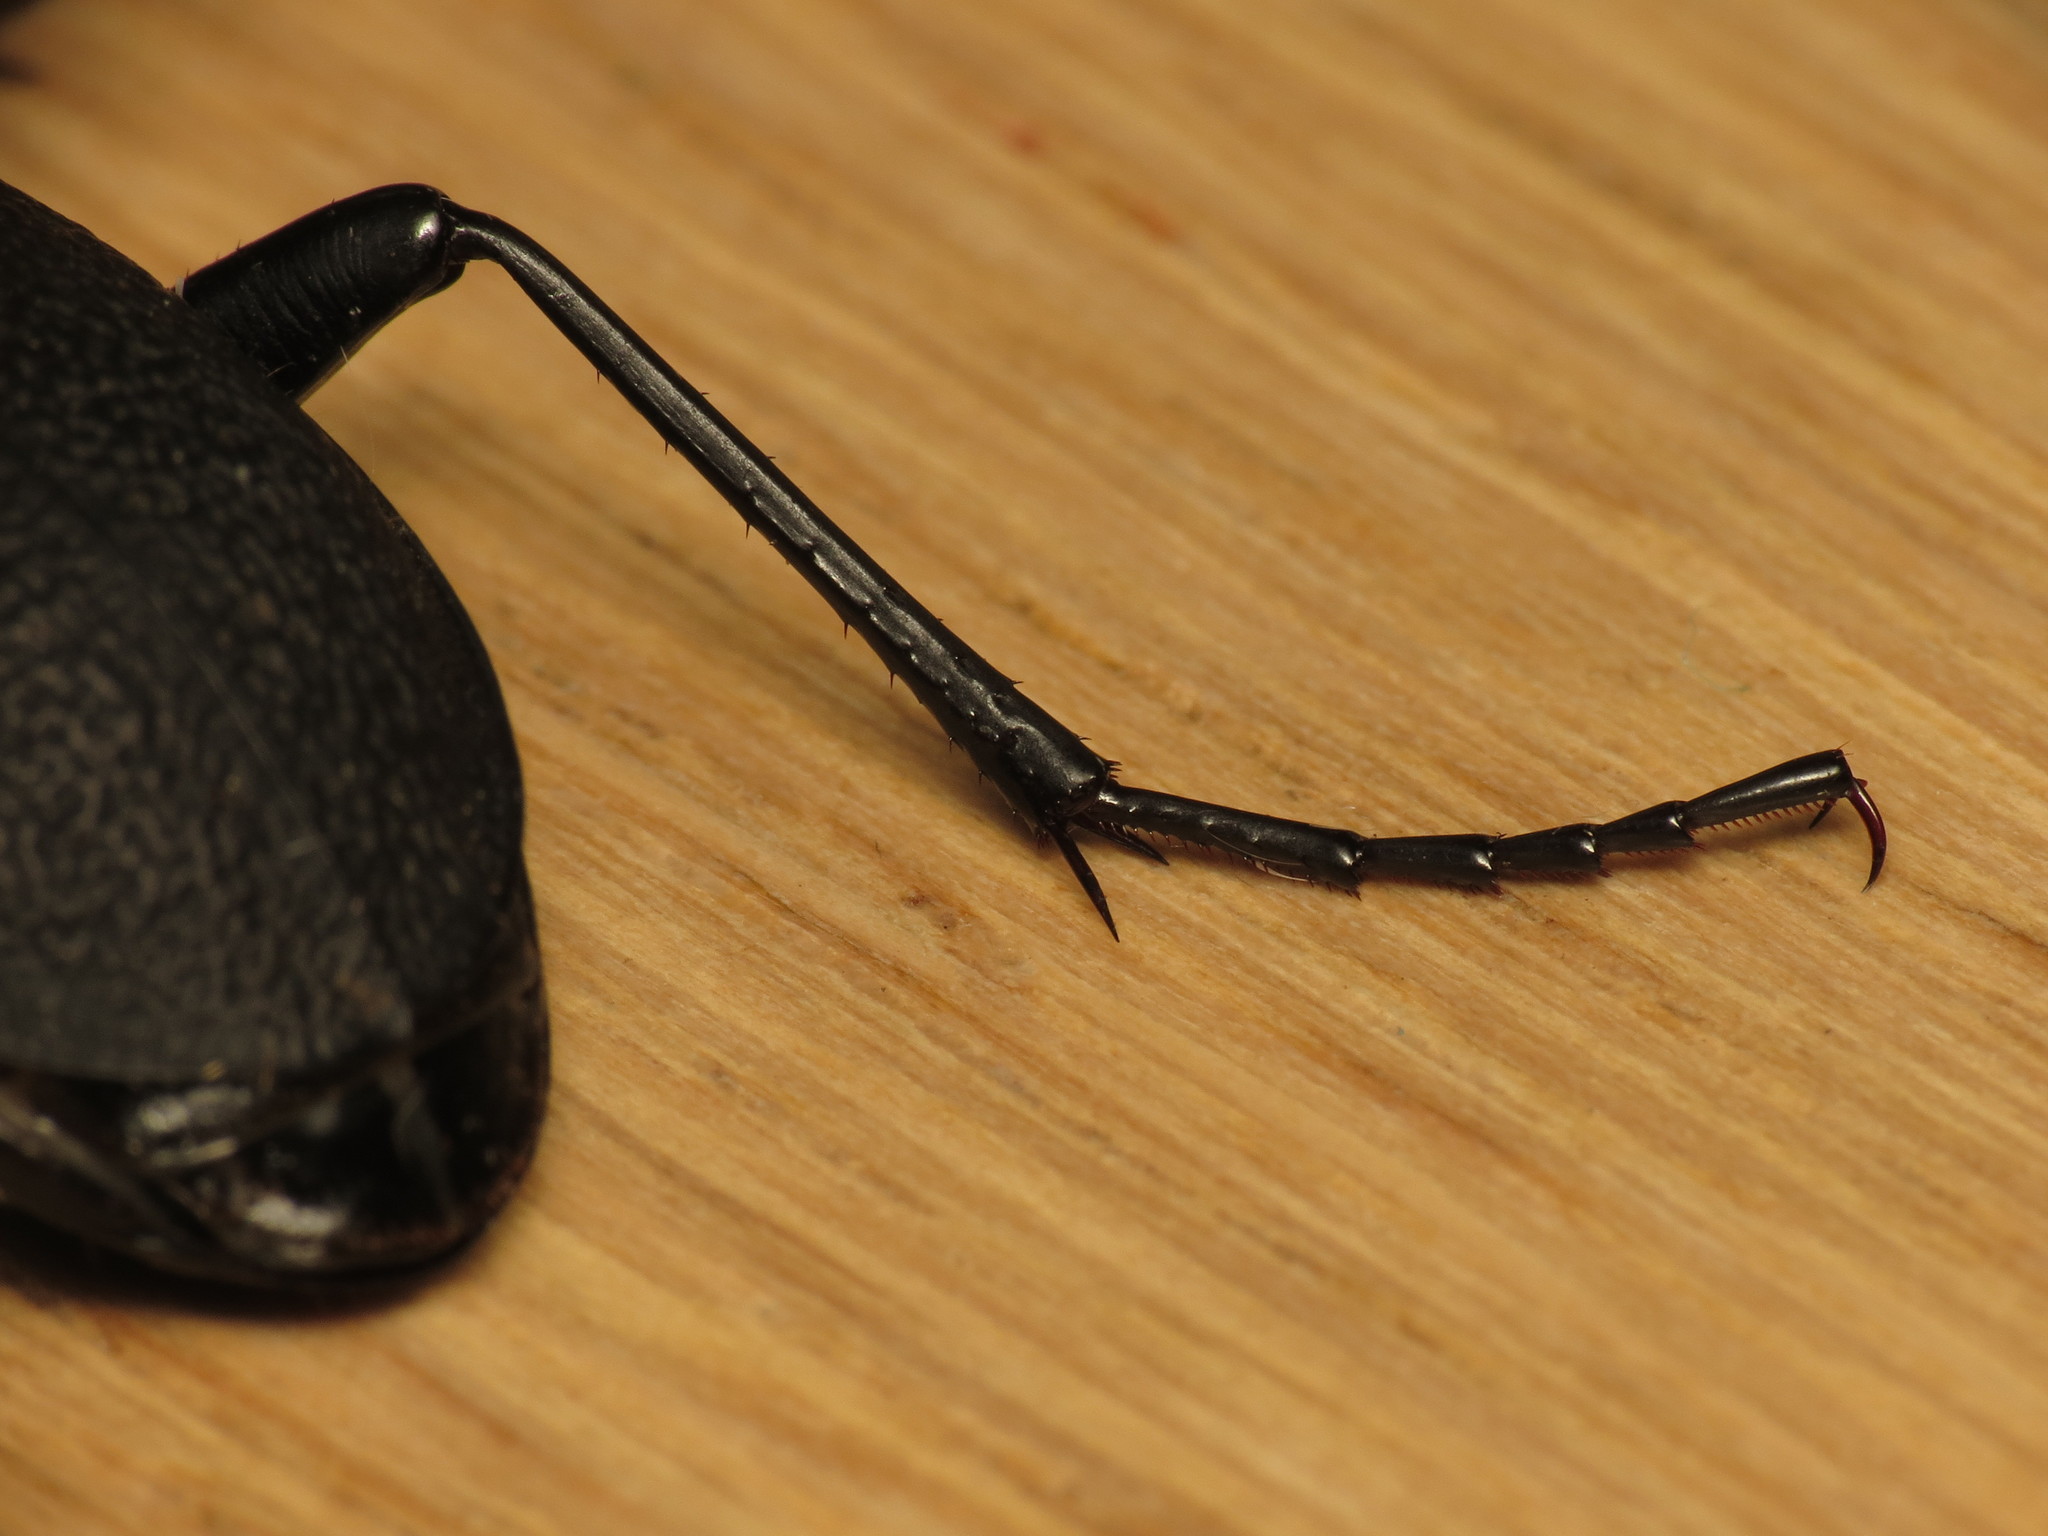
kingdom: Animalia
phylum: Arthropoda
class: Insecta
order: Coleoptera
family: Carabidae
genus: Carabus
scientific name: Carabus coriaceus
